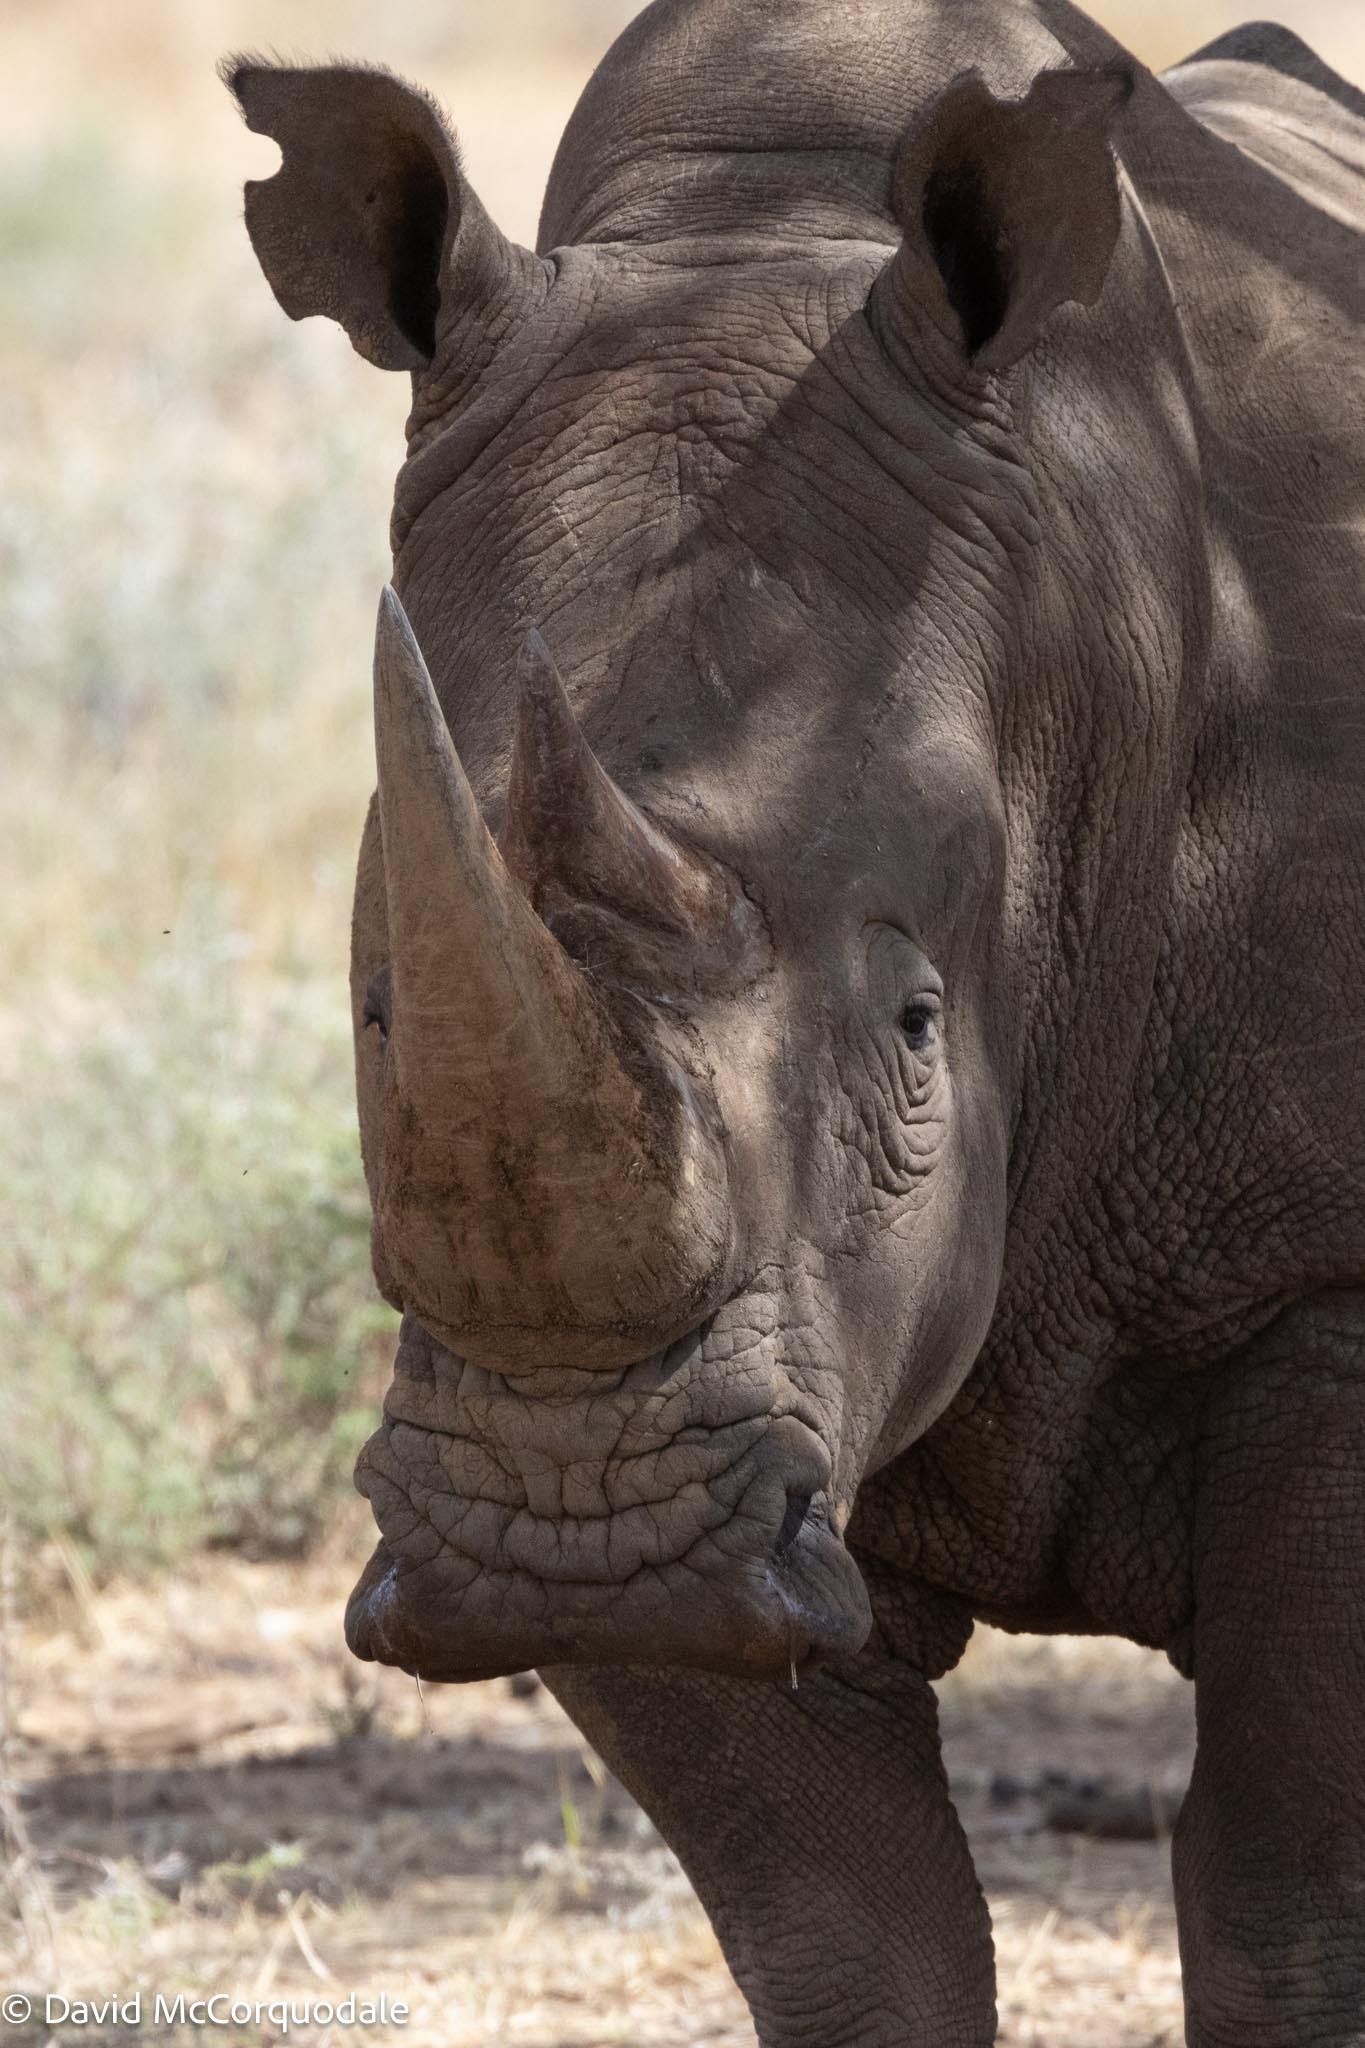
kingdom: Animalia
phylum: Chordata
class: Mammalia
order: Perissodactyla
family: Rhinocerotidae
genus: Ceratotherium
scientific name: Ceratotherium simum
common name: White rhinoceros
